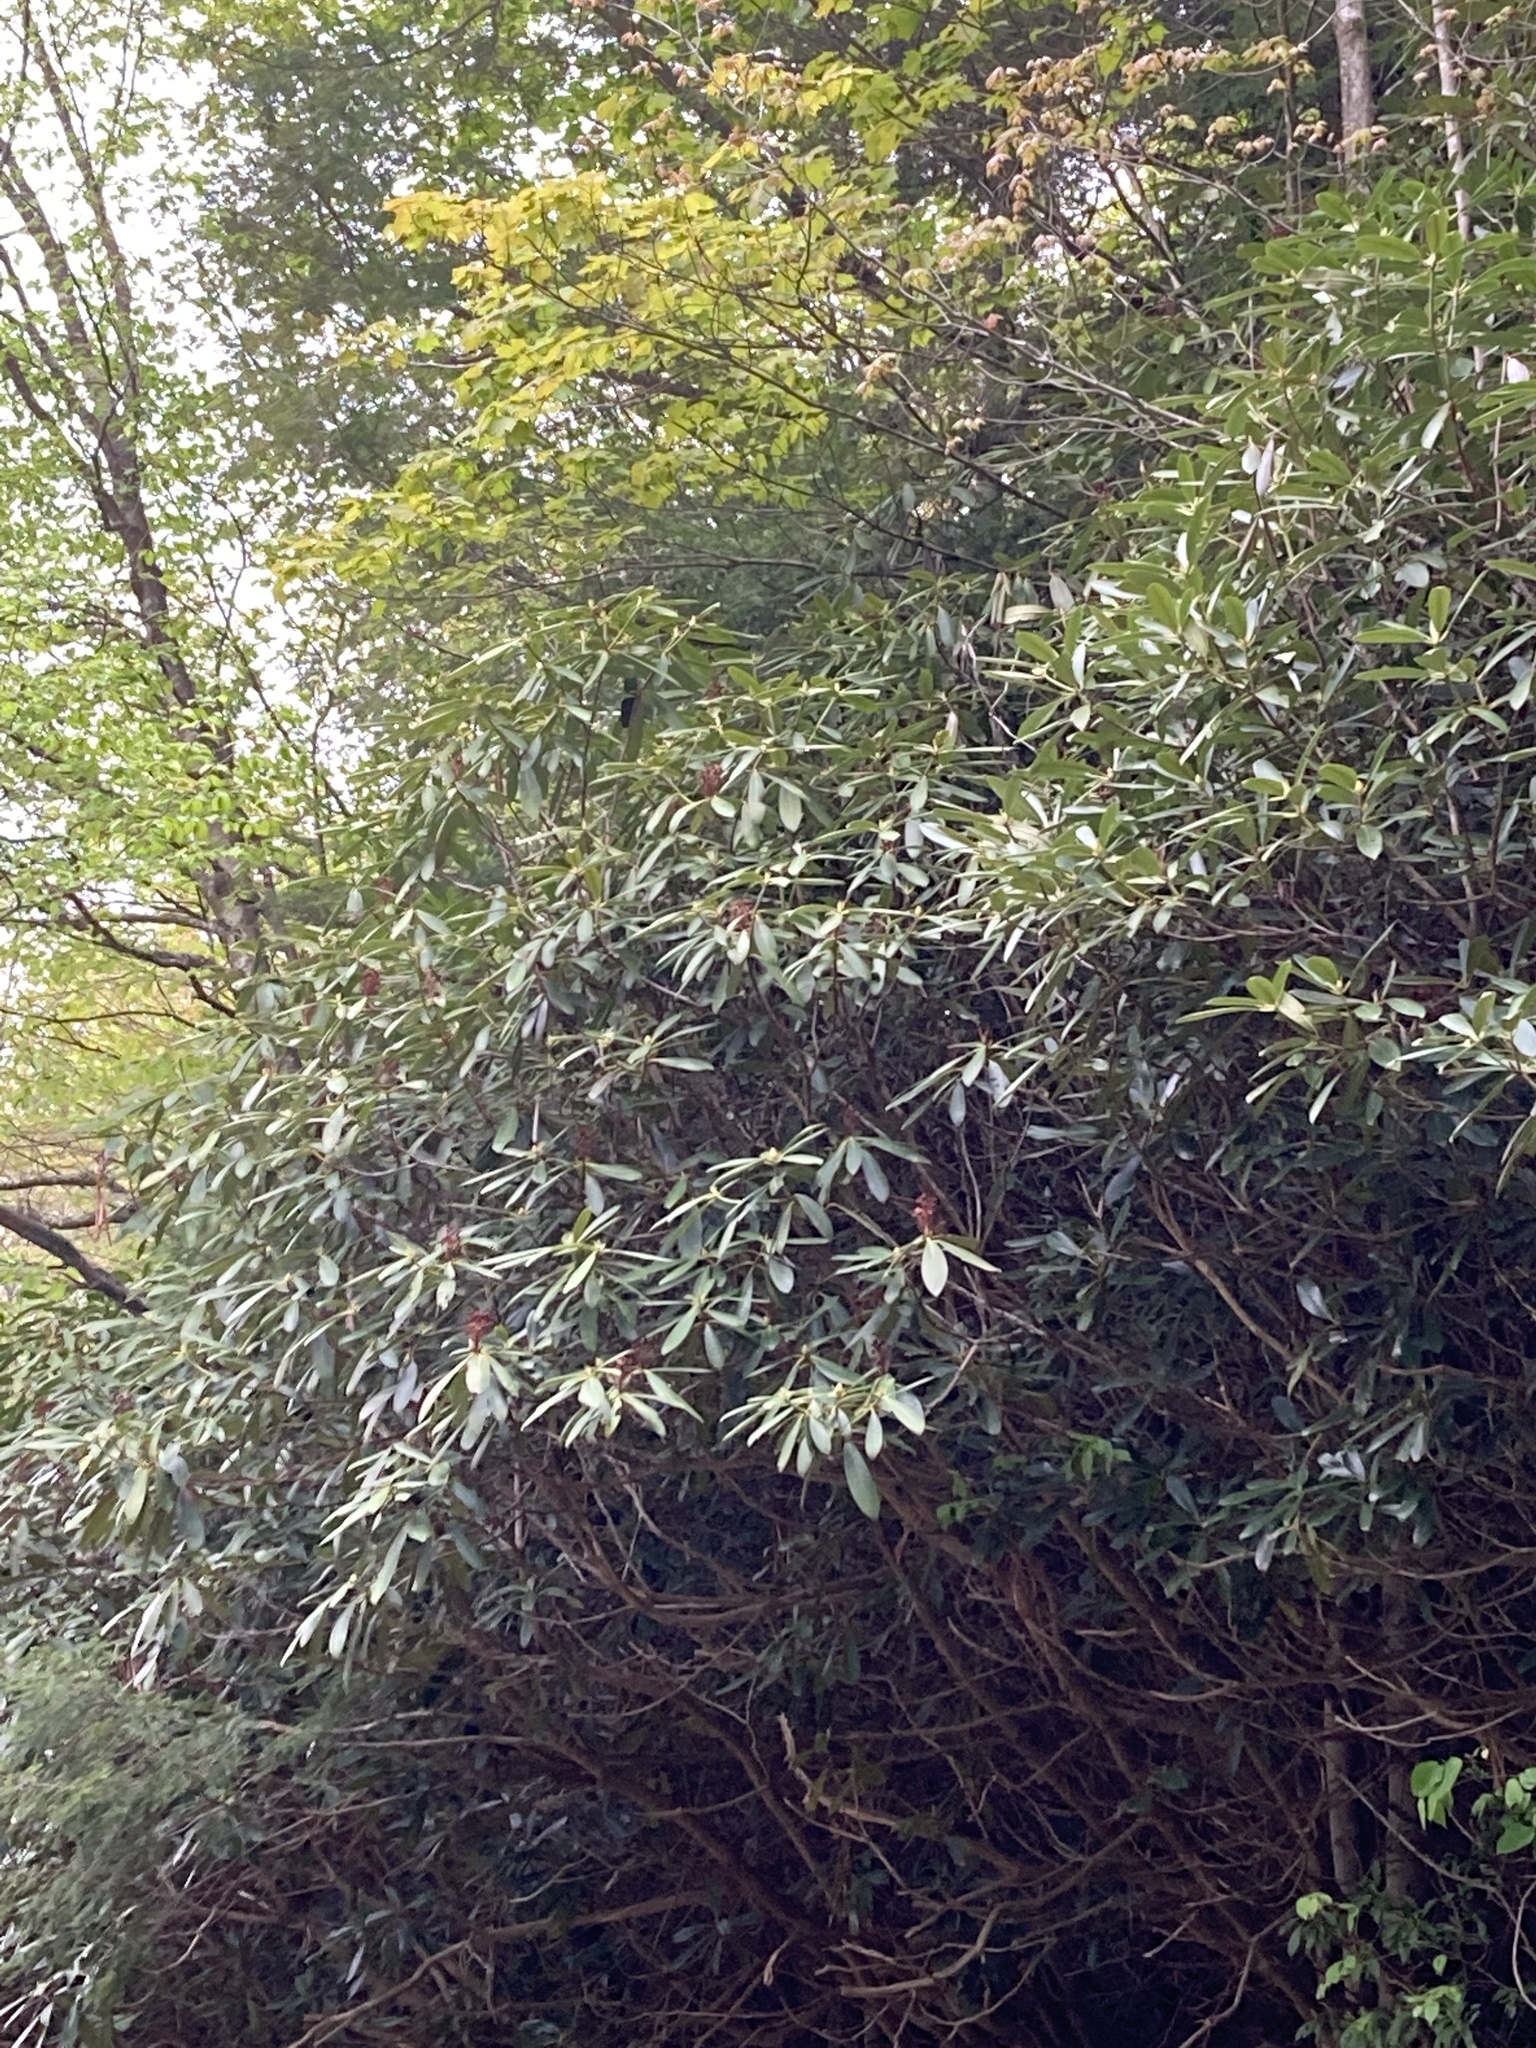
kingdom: Plantae
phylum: Tracheophyta
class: Magnoliopsida
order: Ericales
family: Ericaceae
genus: Rhododendron
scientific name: Rhododendron maximum
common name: Great rhododendron
